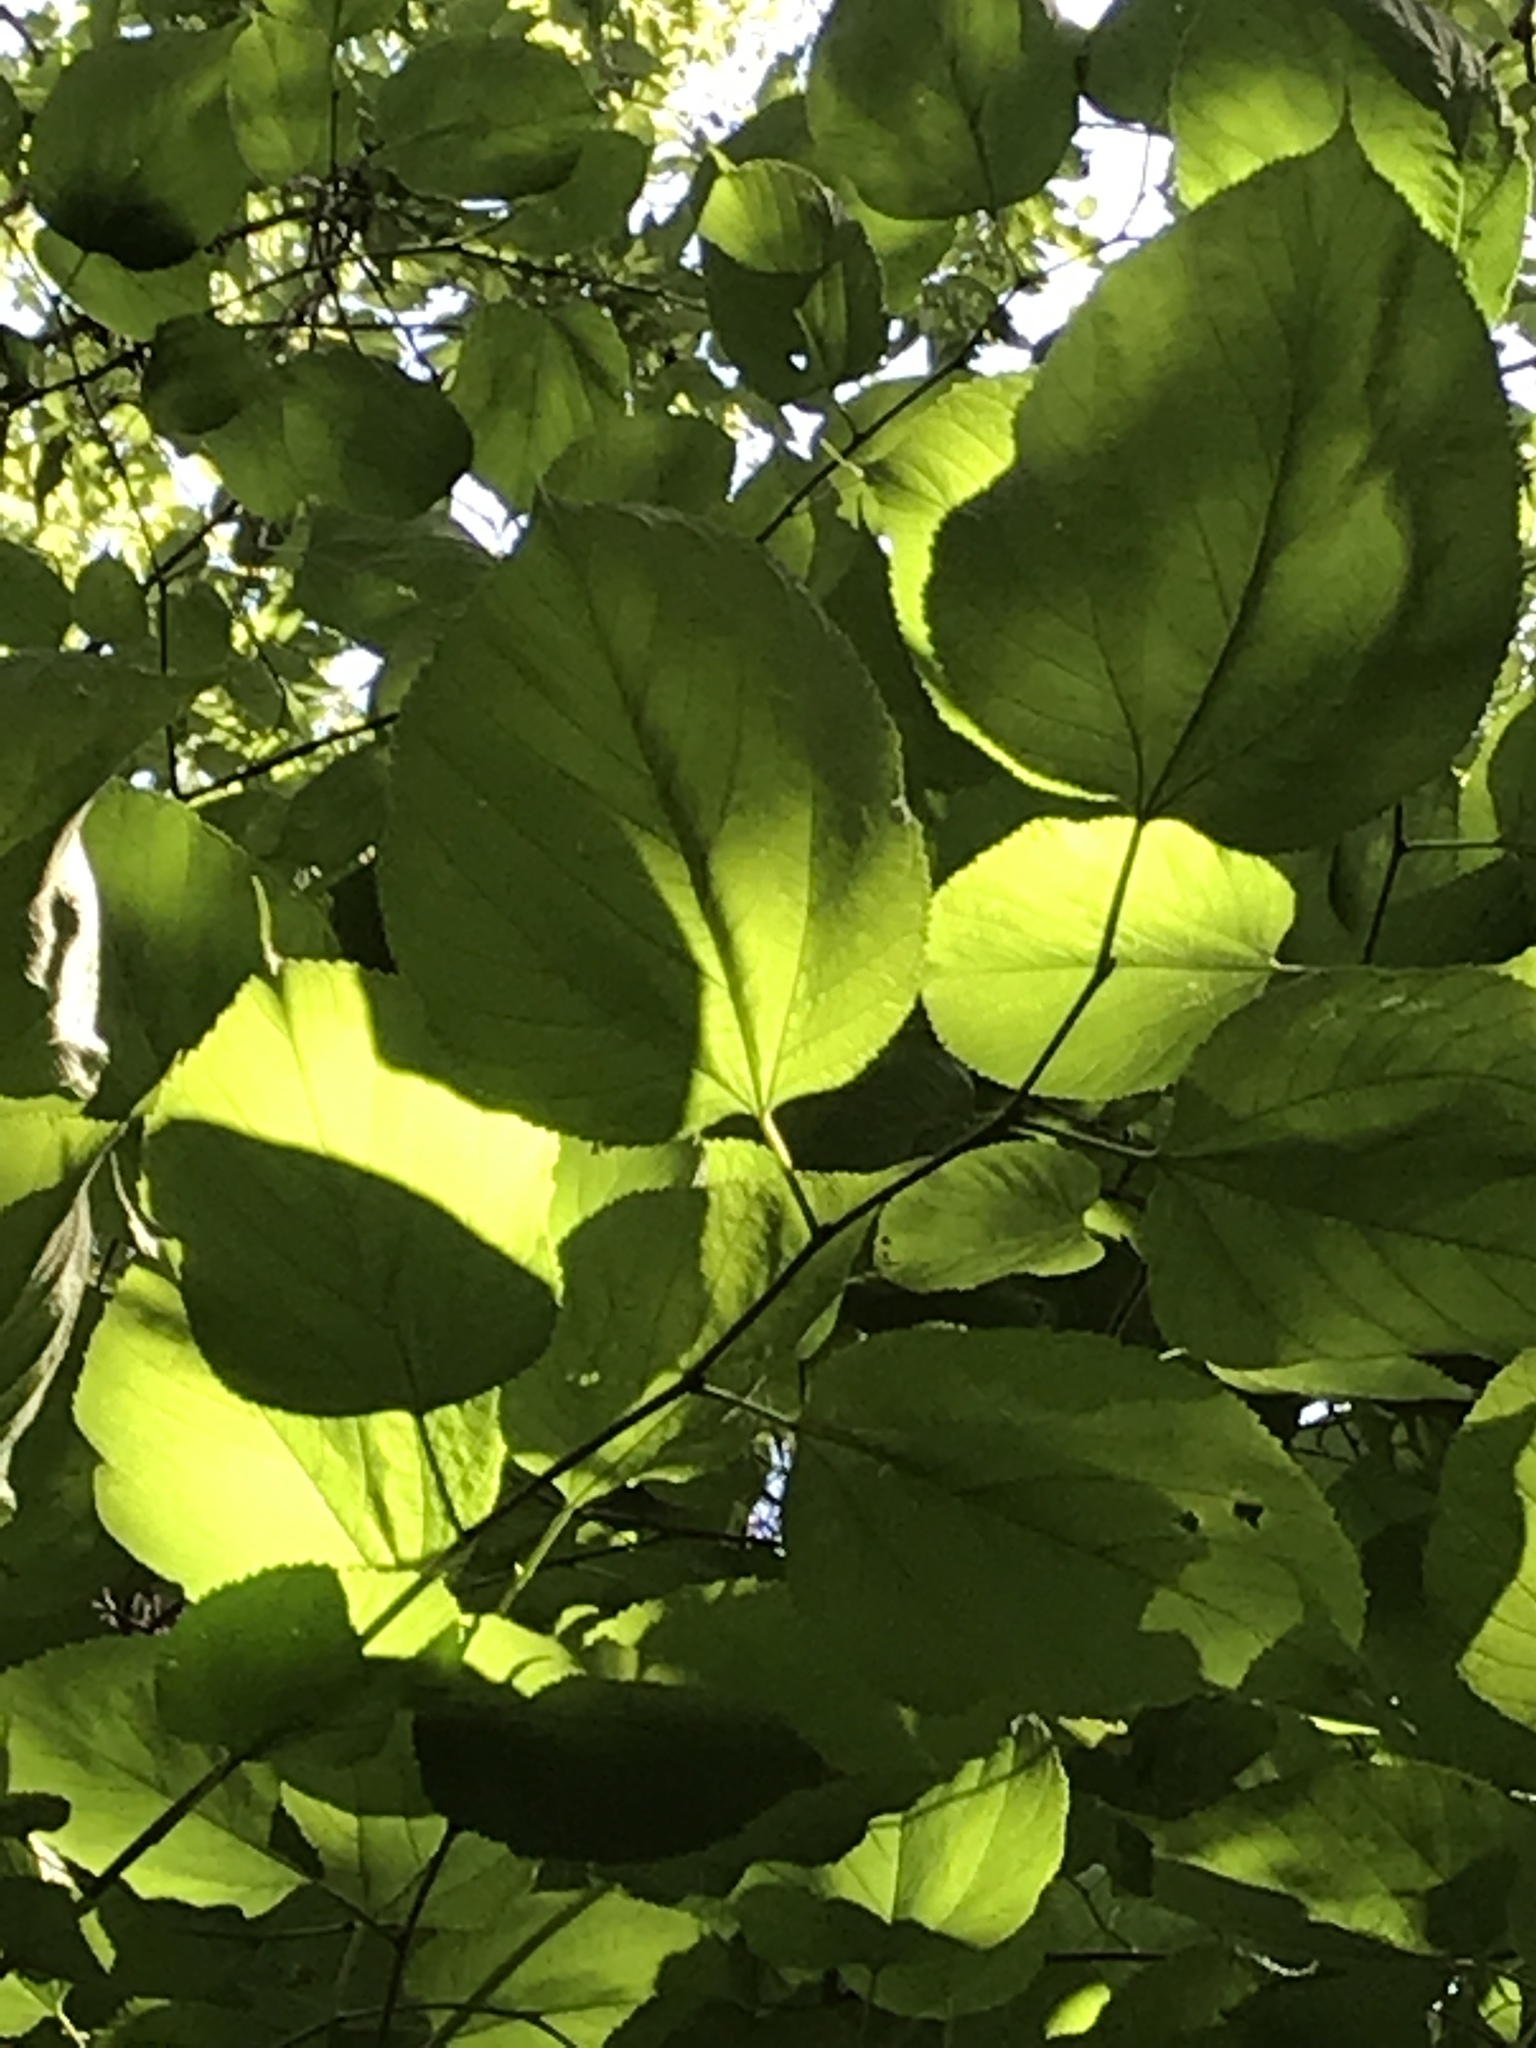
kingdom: Plantae
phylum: Tracheophyta
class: Magnoliopsida
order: Rosales
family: Moraceae
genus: Morus
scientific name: Morus rubra
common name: Red mulberry
